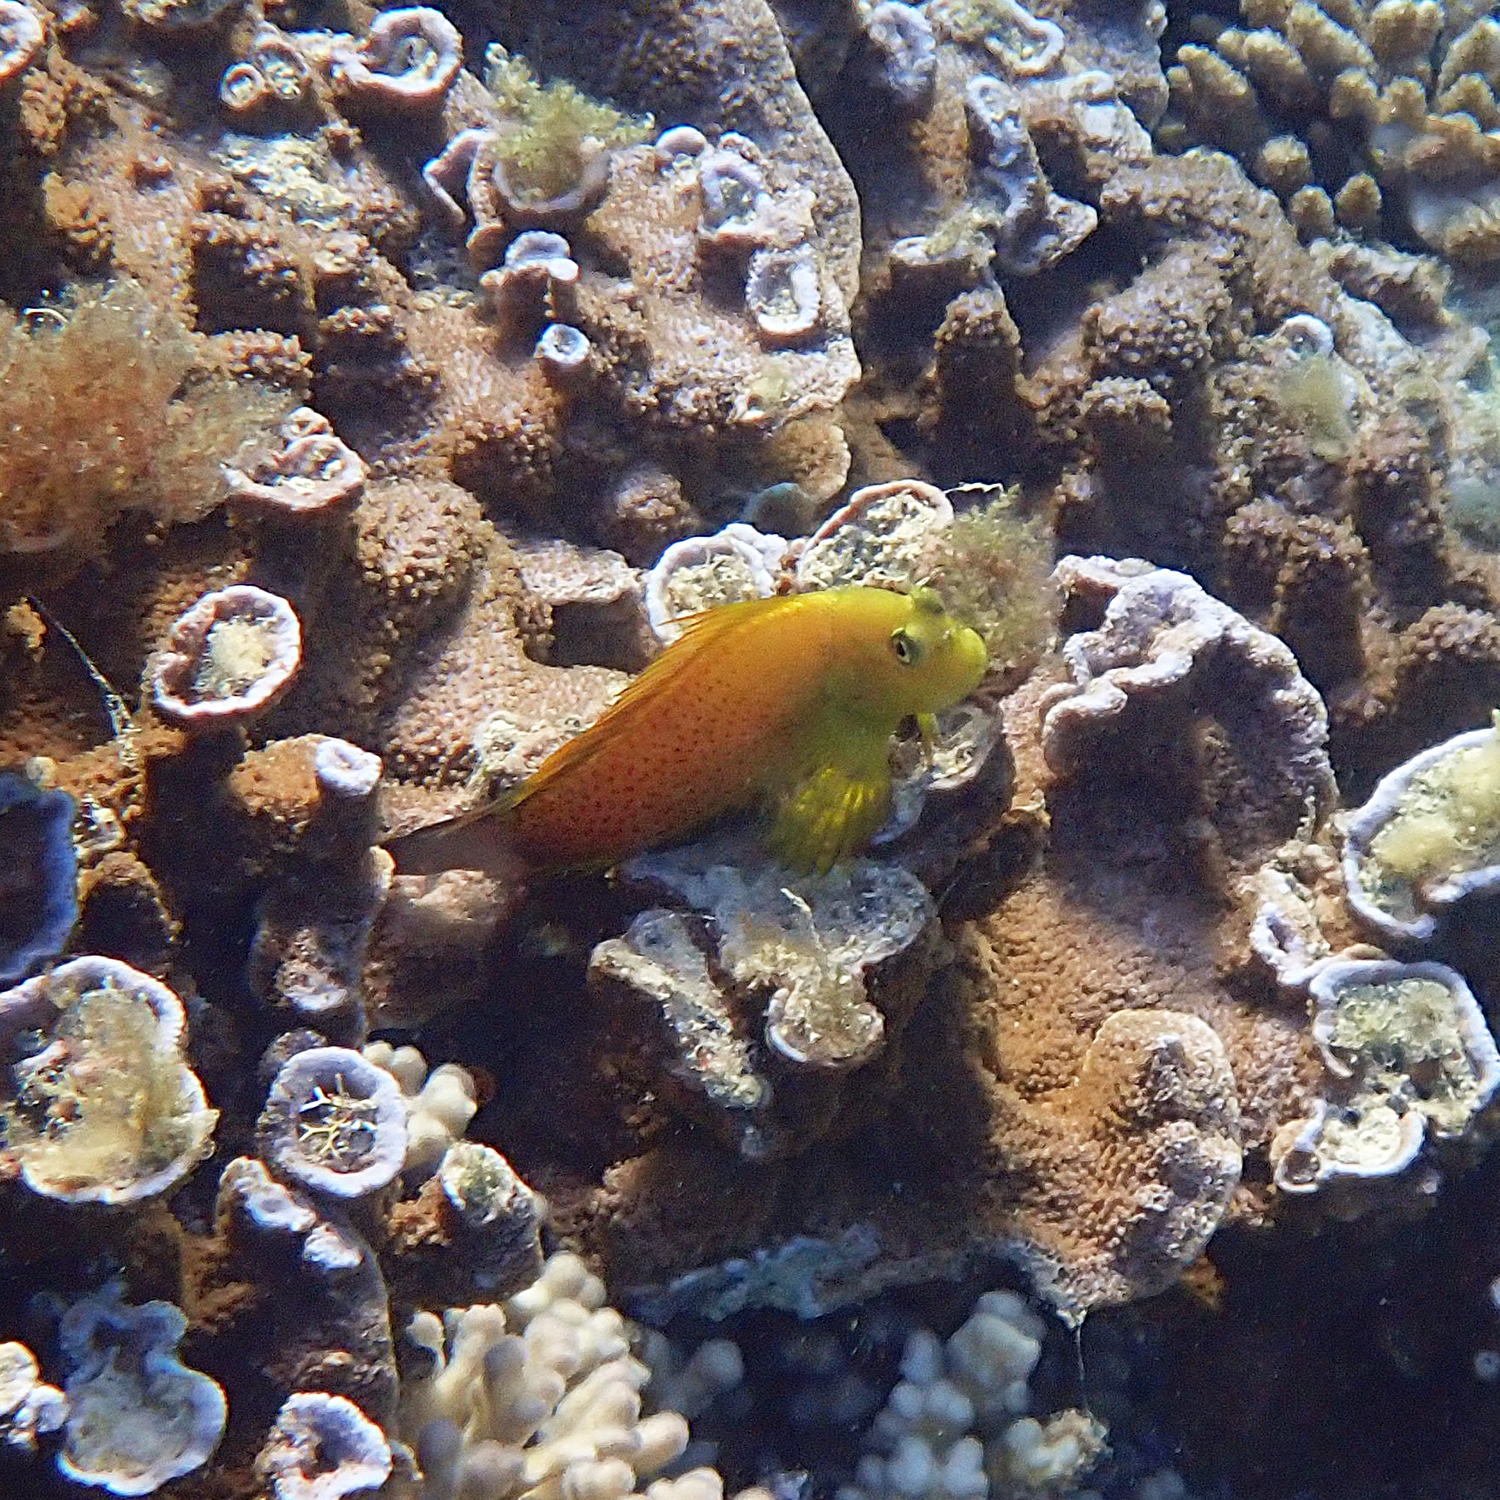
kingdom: Animalia
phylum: Chordata
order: Perciformes
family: Blenniidae
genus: Cirripectes
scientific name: Cirripectes chelomatus
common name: Lady musgrave blenny
